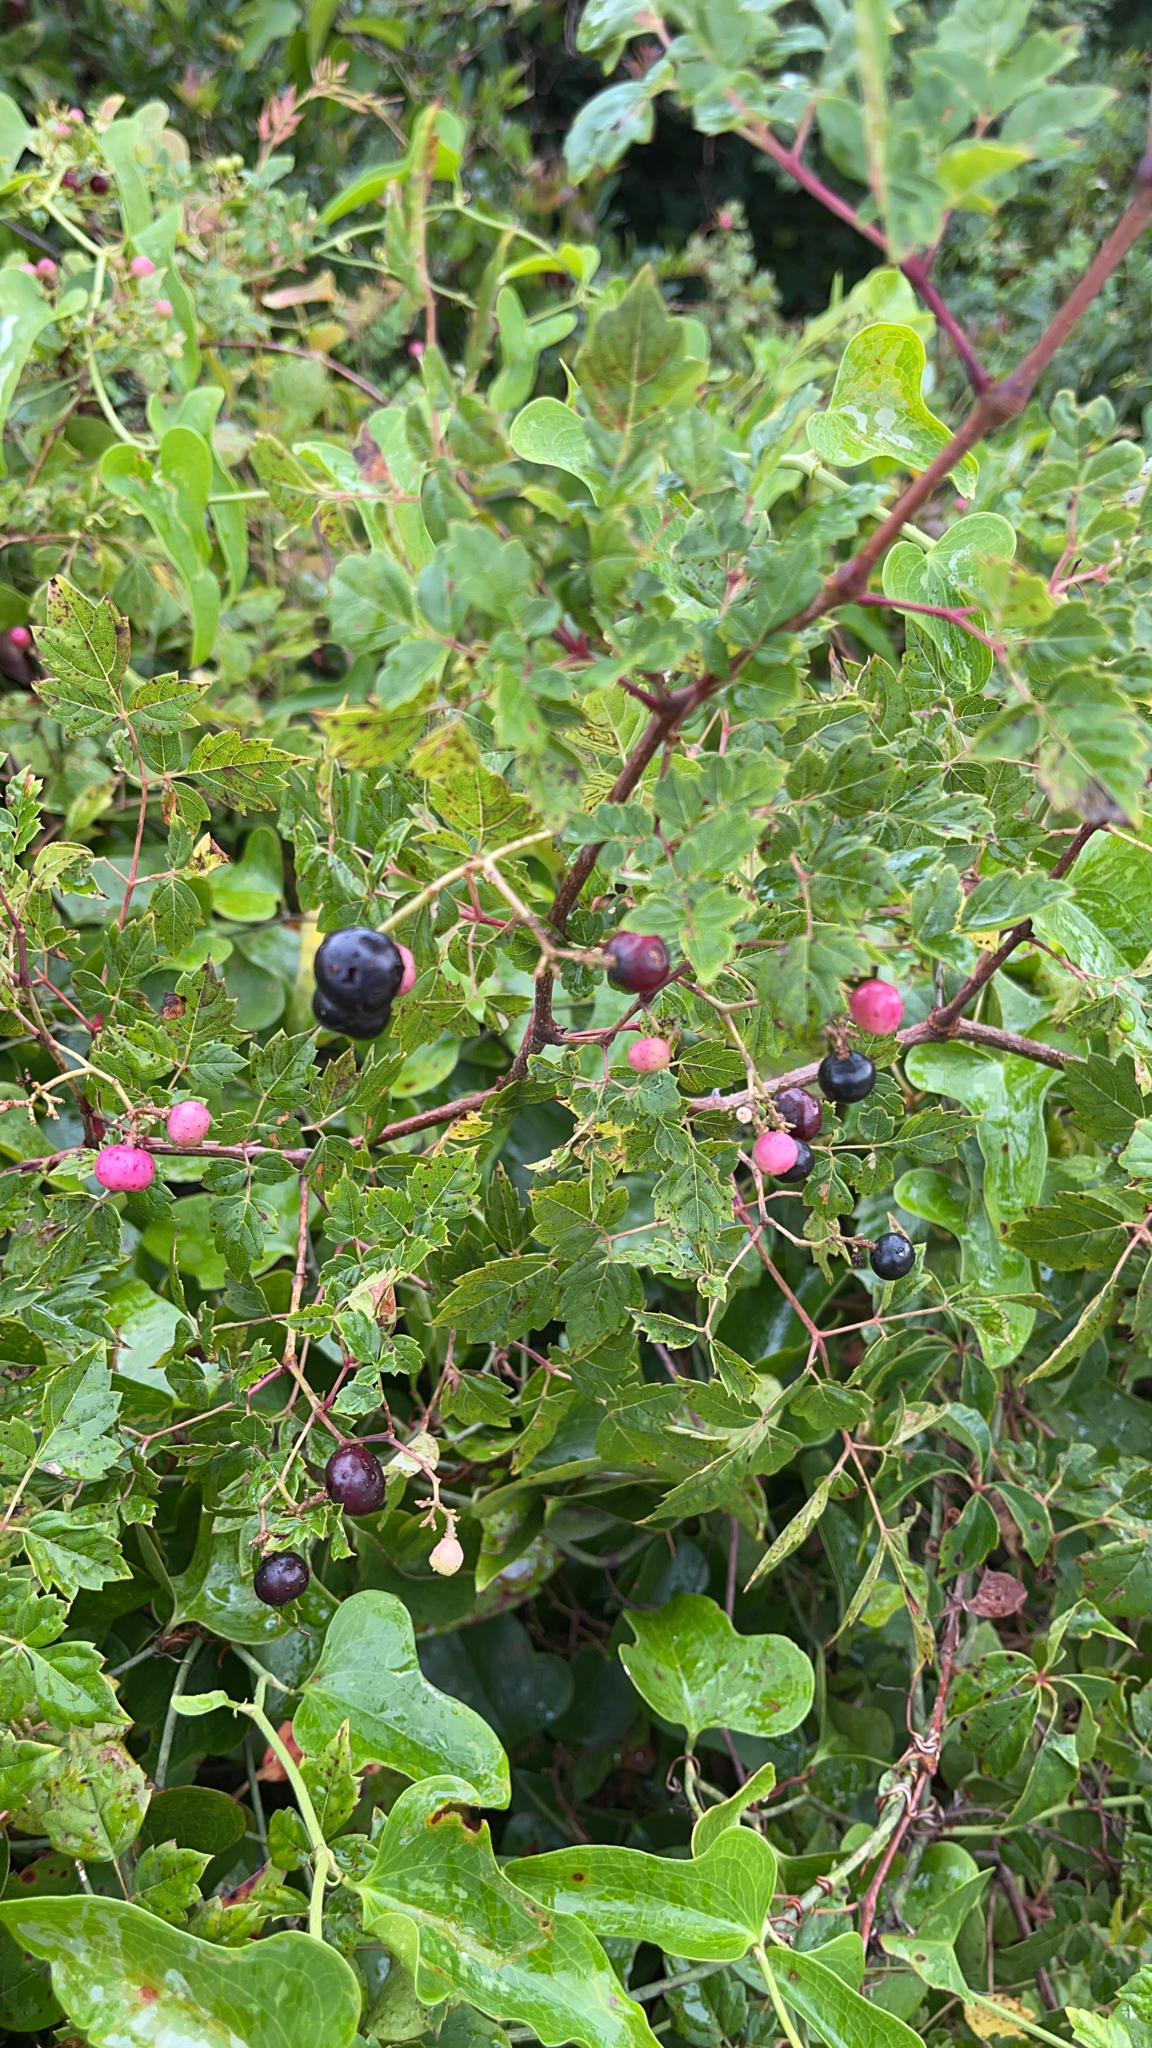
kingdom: Plantae
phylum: Tracheophyta
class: Magnoliopsida
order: Vitales
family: Vitaceae
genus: Nekemias
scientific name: Nekemias arborea
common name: Peppervine
